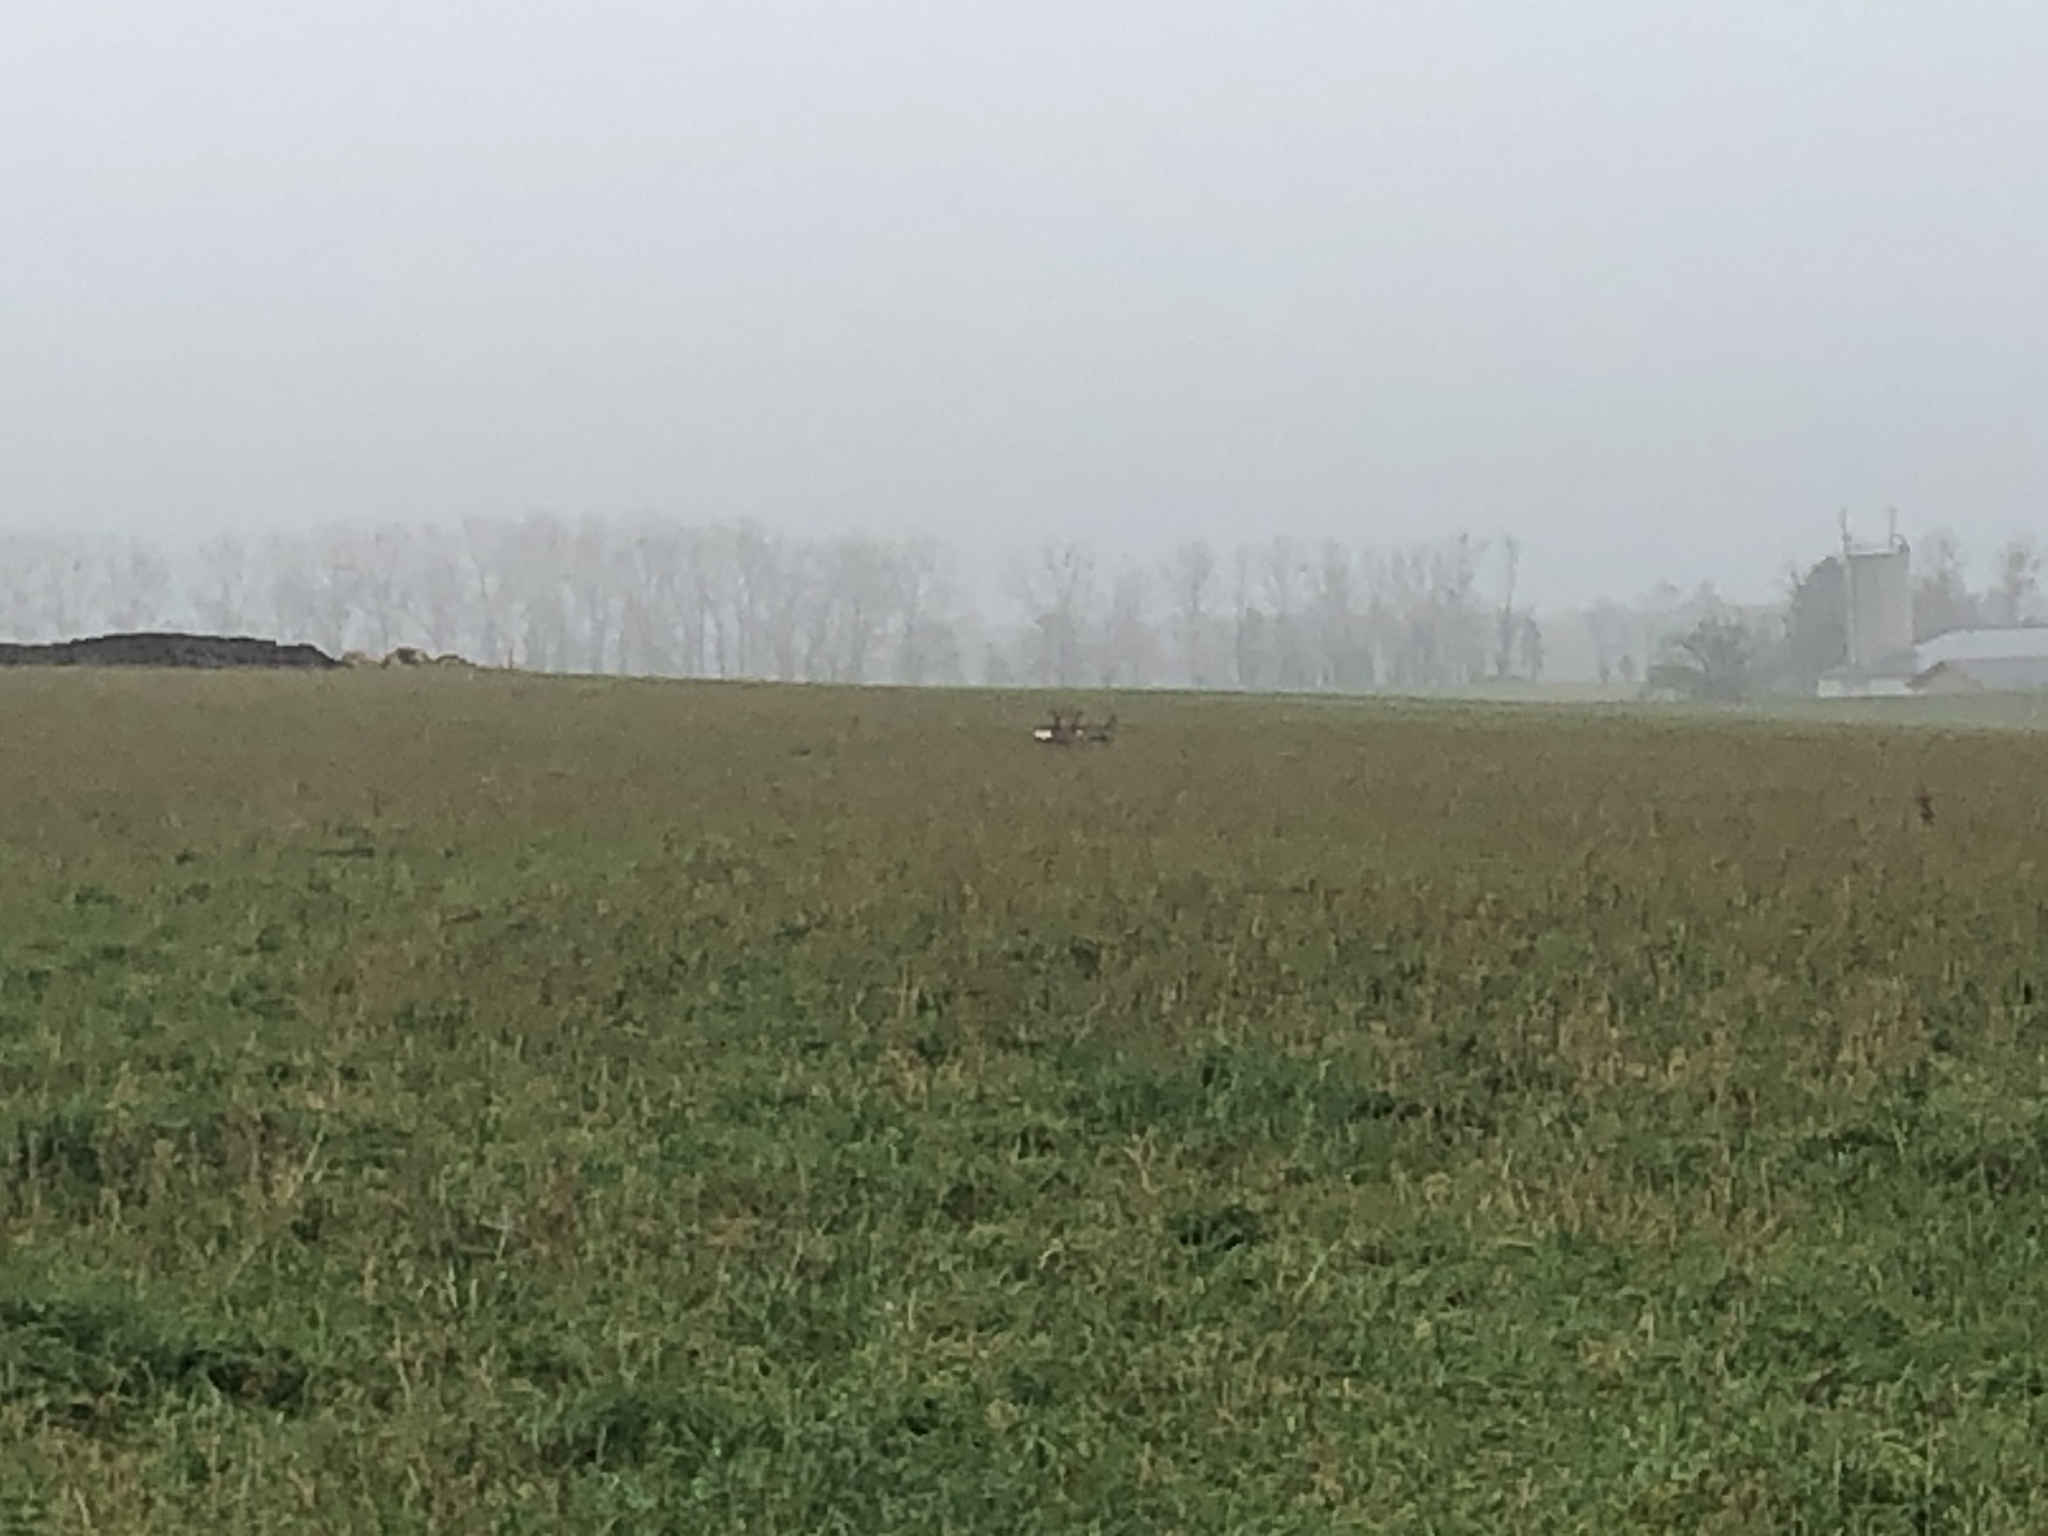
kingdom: Animalia
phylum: Chordata
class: Mammalia
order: Artiodactyla
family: Cervidae
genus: Capreolus
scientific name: Capreolus capreolus
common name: Western roe deer
